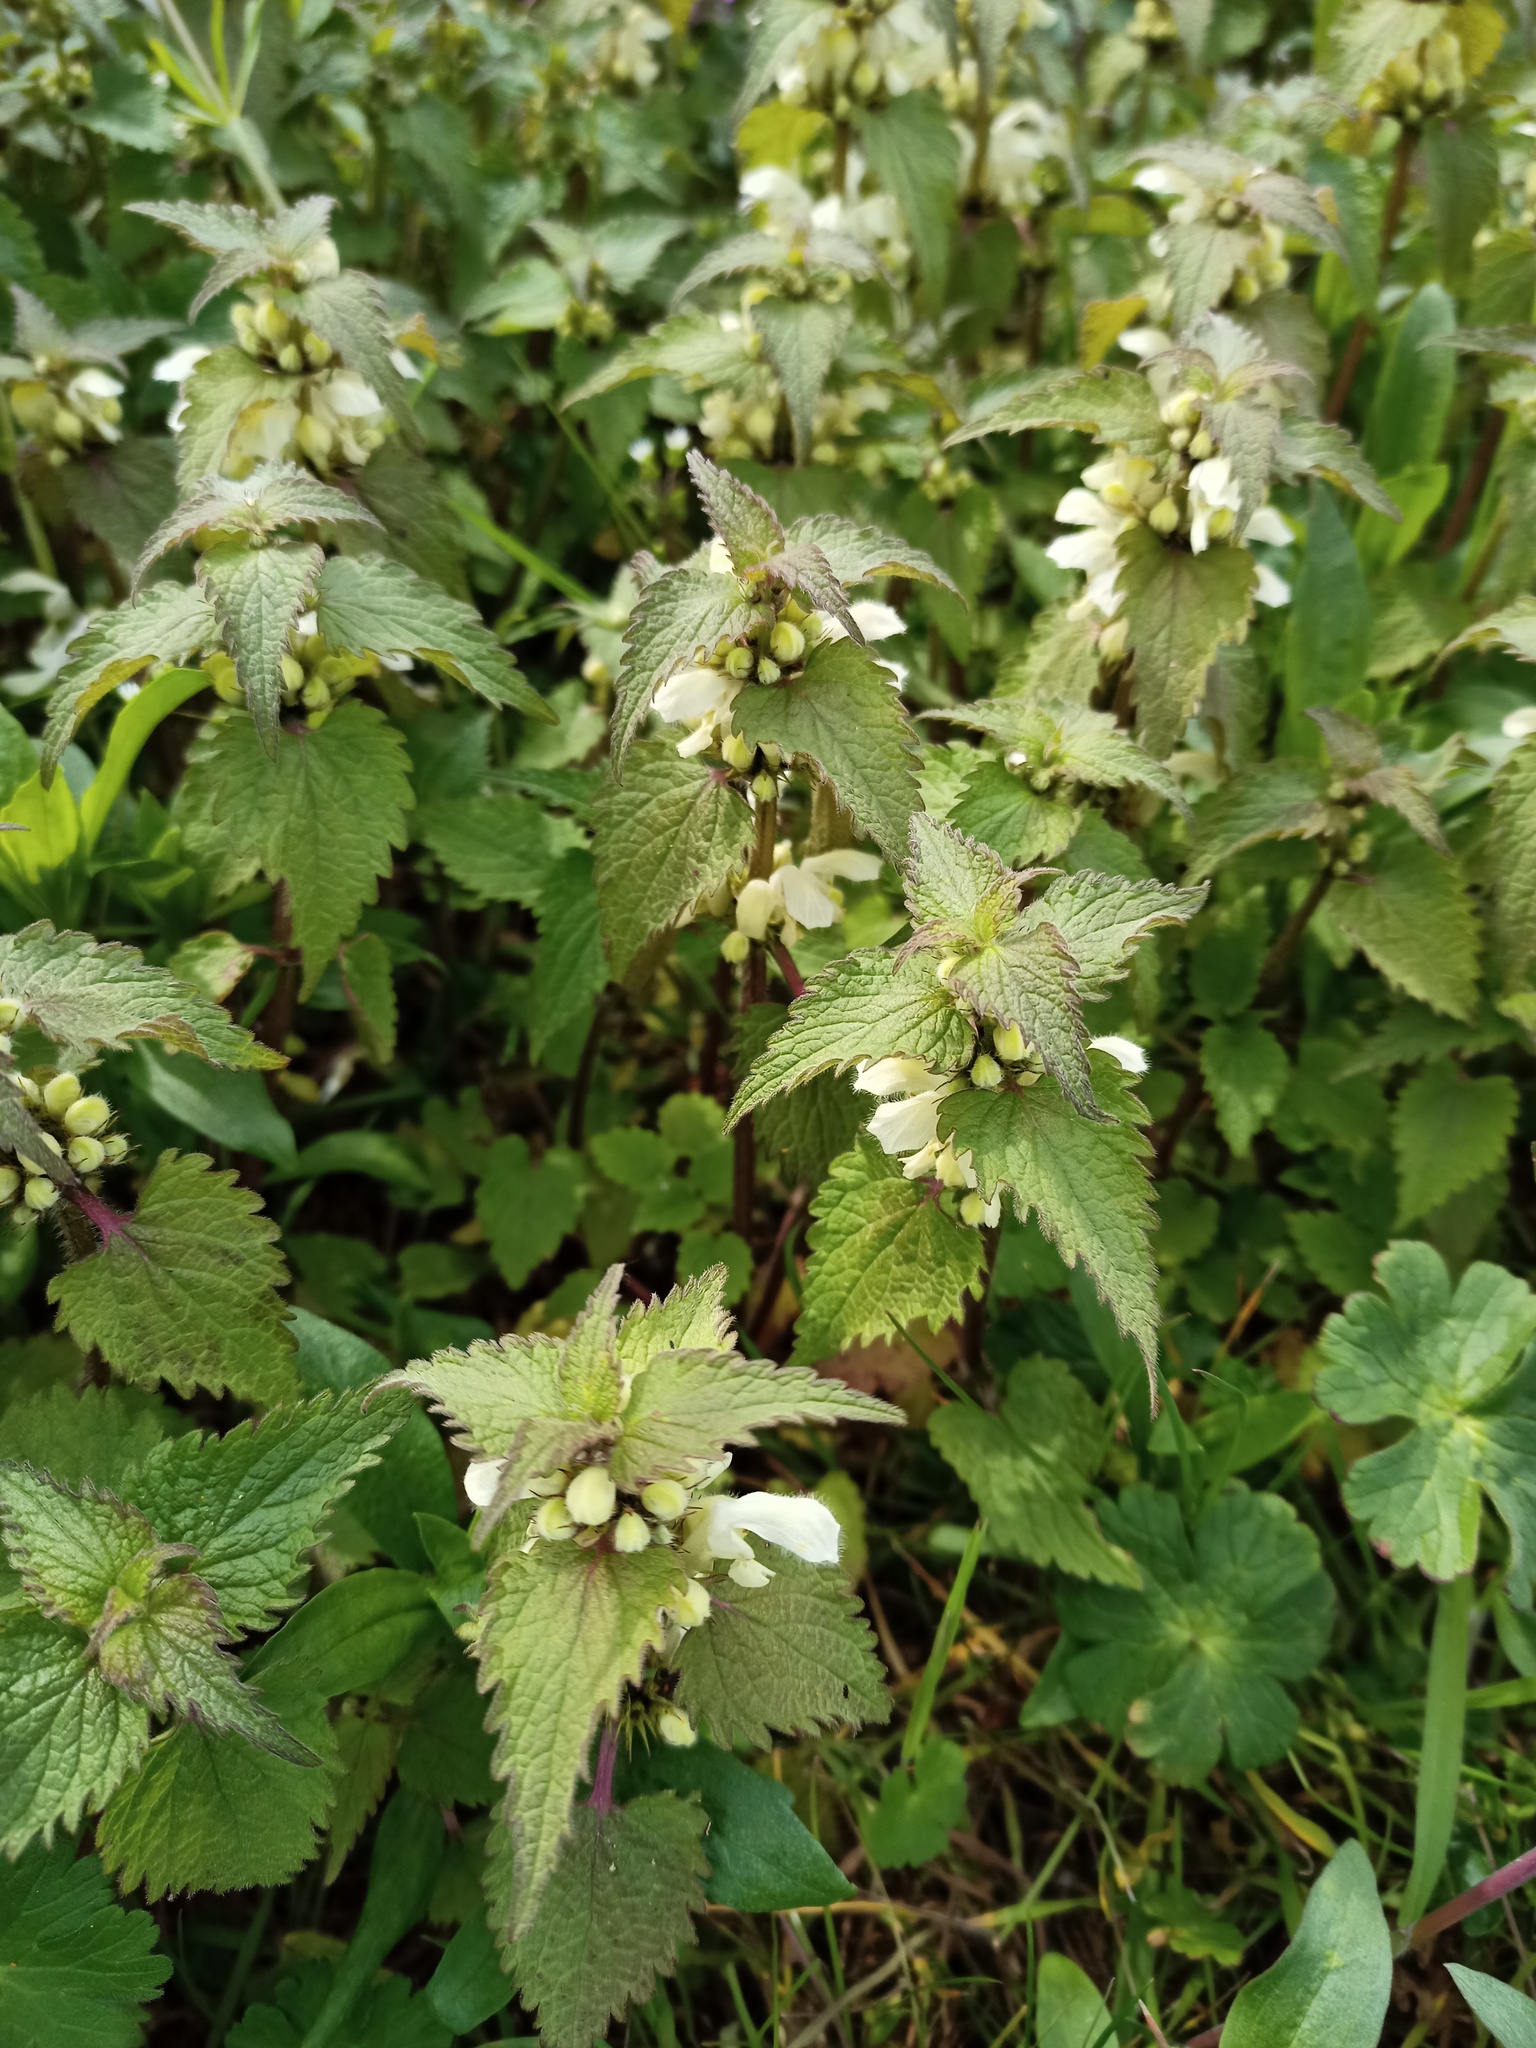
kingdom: Plantae
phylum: Tracheophyta
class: Magnoliopsida
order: Lamiales
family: Lamiaceae
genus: Lamium
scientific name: Lamium album
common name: White dead-nettle
